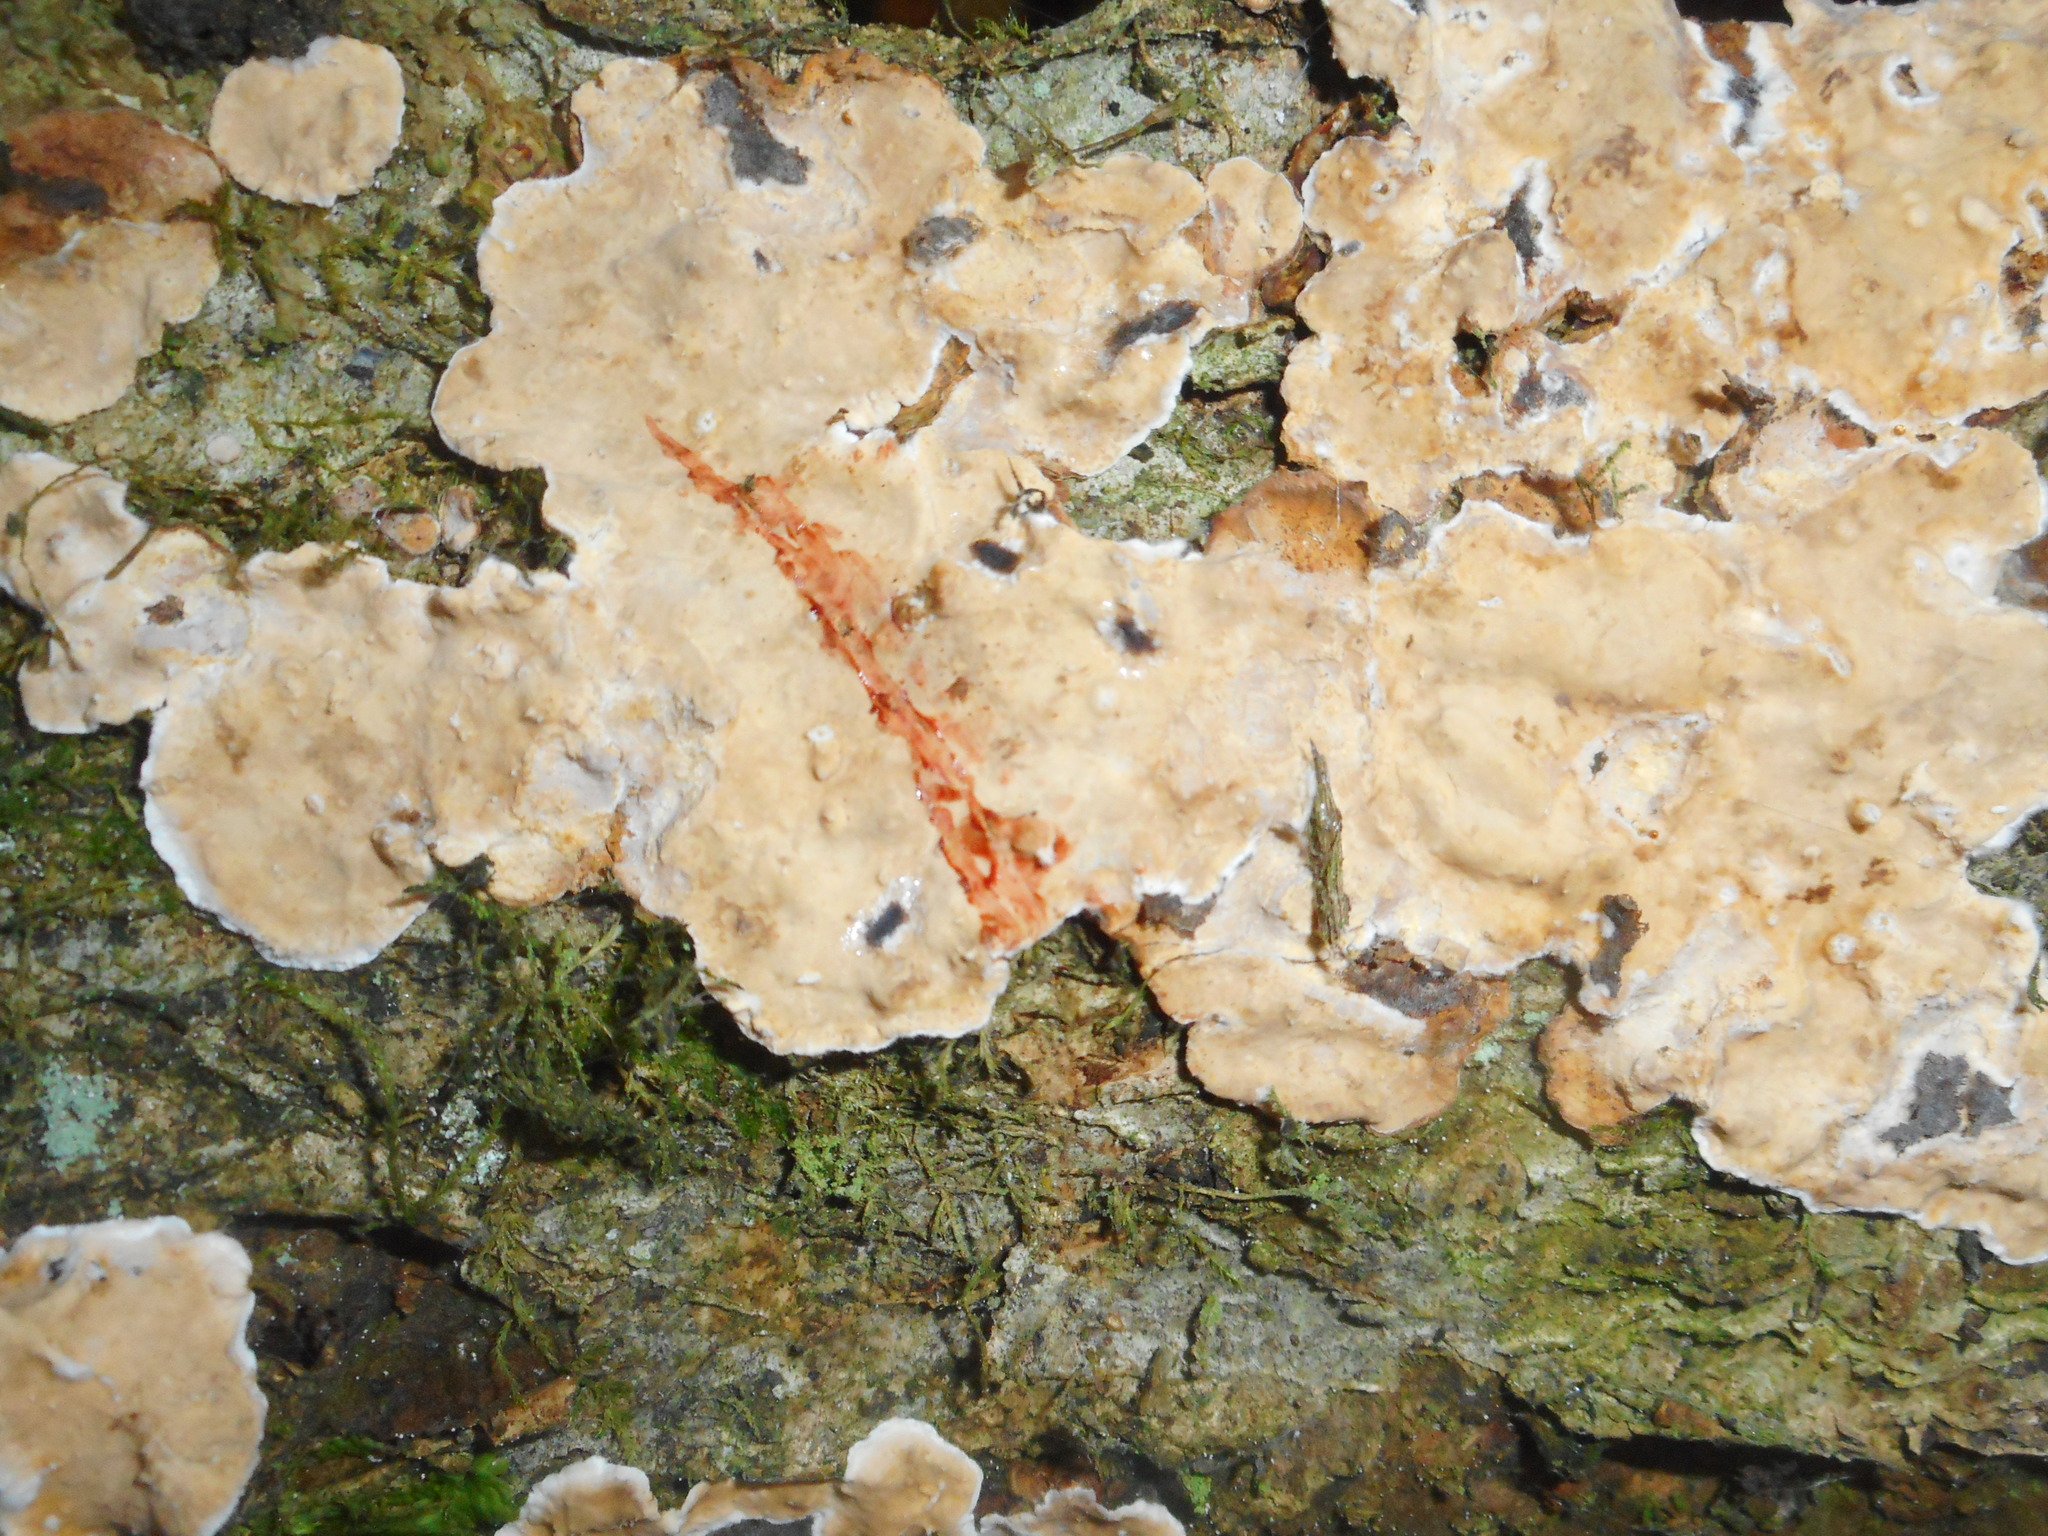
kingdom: Fungi
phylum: Basidiomycota
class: Agaricomycetes
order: Russulales
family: Stereaceae
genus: Stereum
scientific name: Stereum rugosum
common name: Bleeding broadleaf crust
